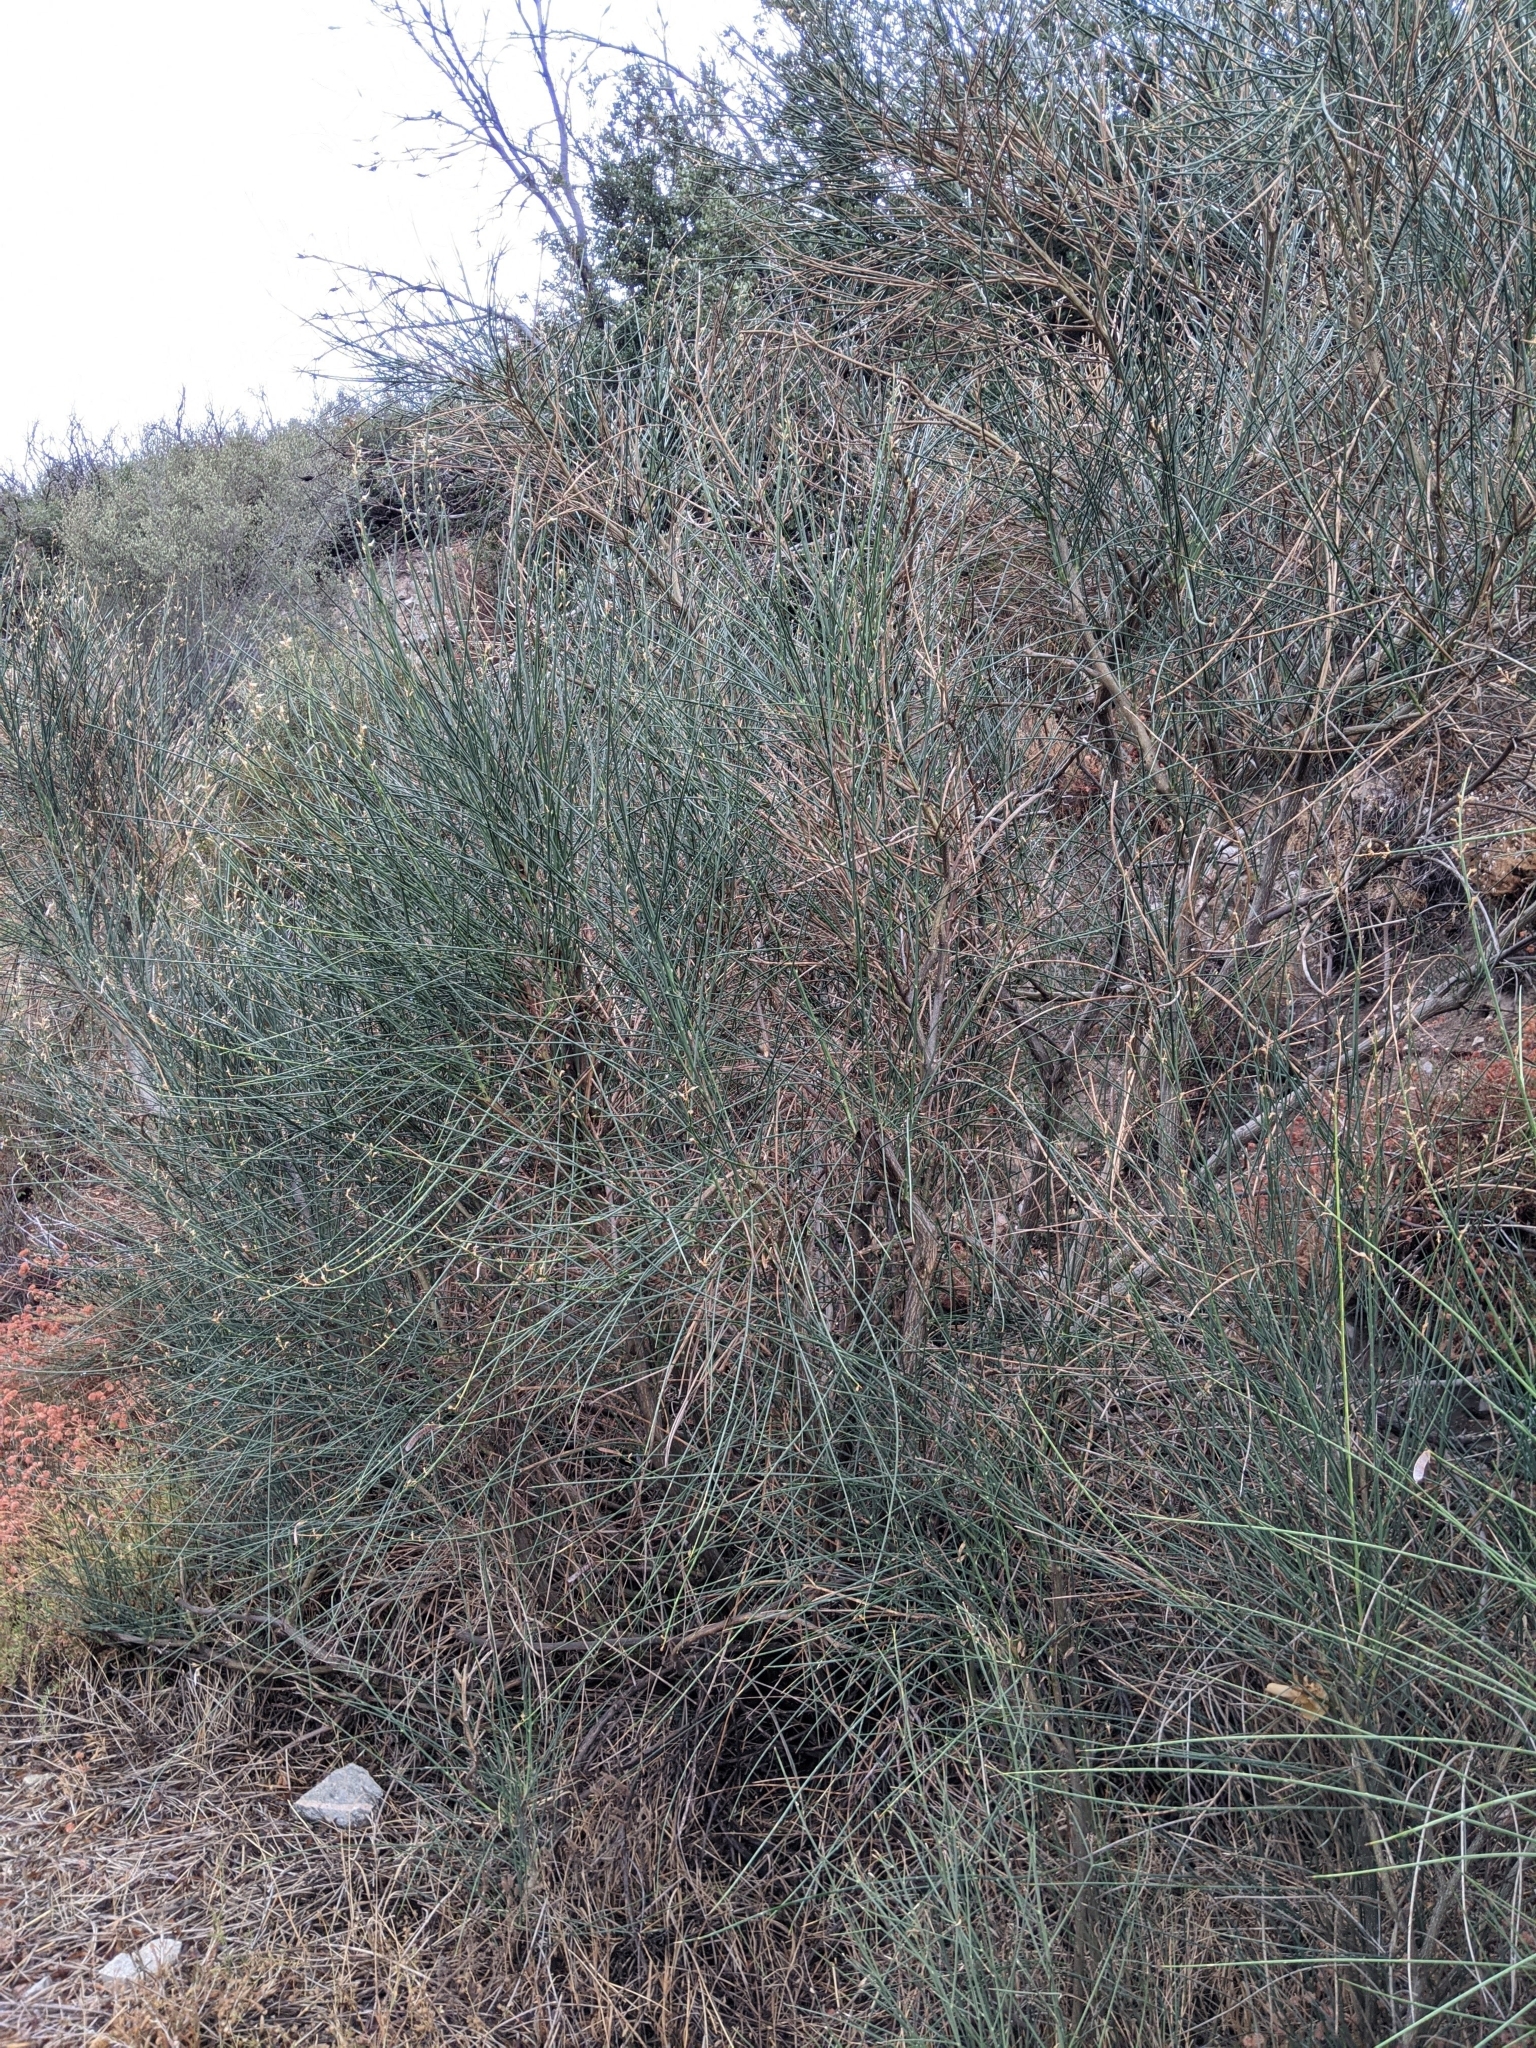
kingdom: Plantae
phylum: Tracheophyta
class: Magnoliopsida
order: Fabales
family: Fabaceae
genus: Spartium
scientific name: Spartium junceum
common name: Spanish broom
